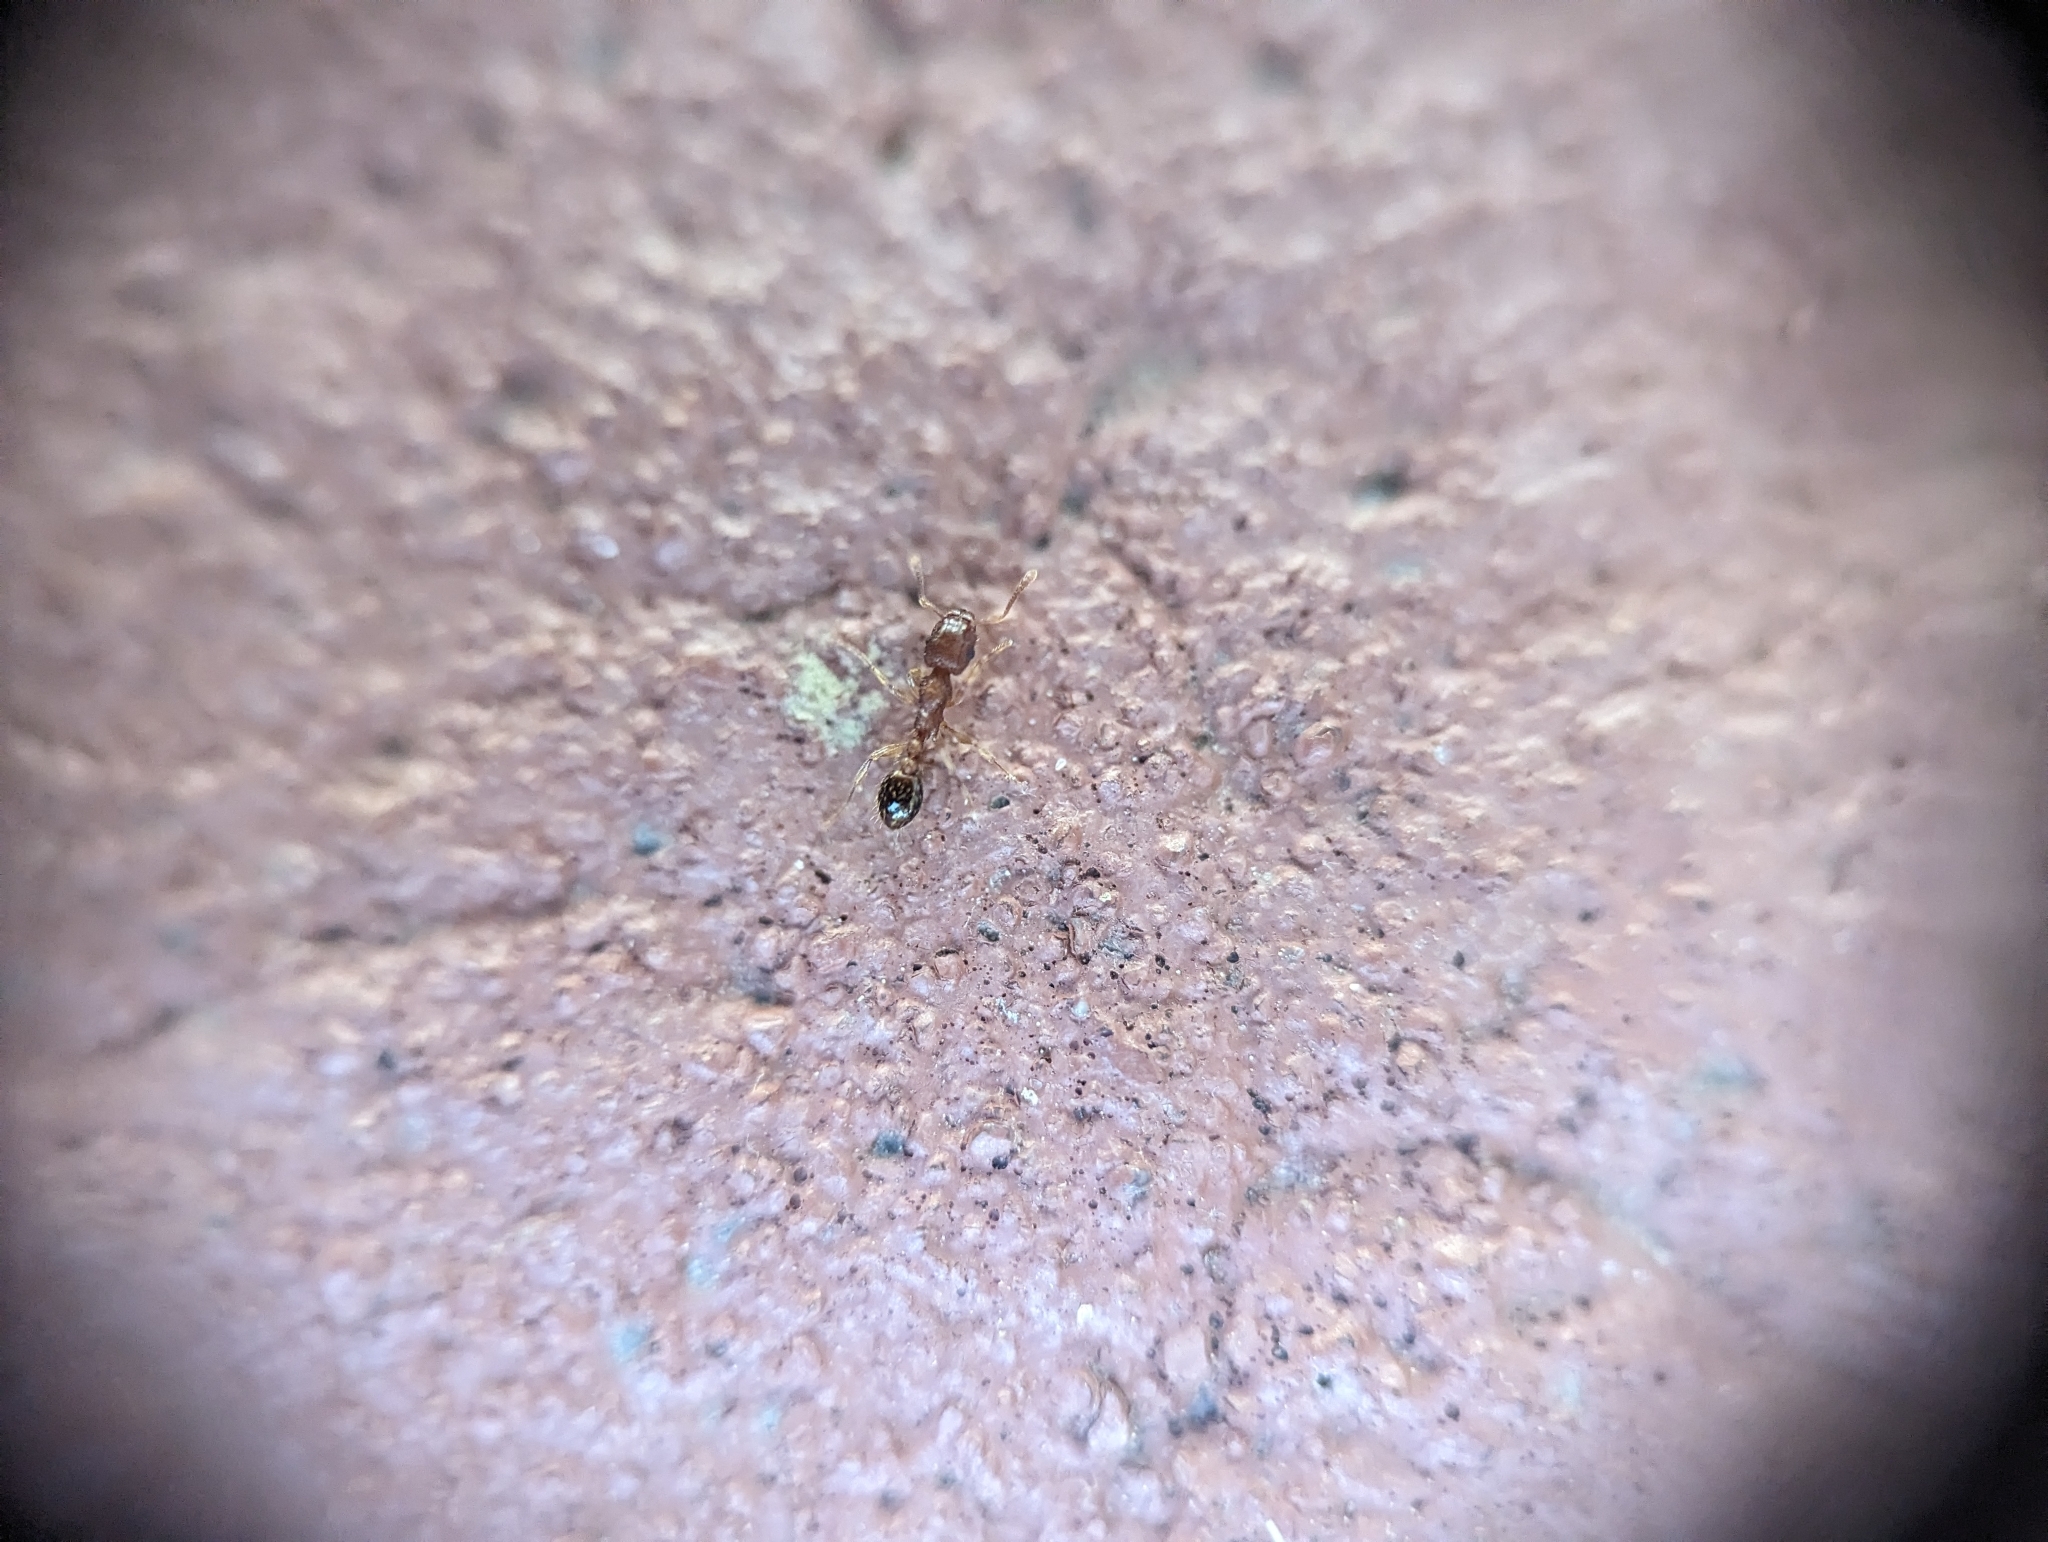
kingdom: Animalia
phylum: Arthropoda
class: Insecta
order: Hymenoptera
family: Formicidae
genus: Tetramorium
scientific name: Tetramorium bicarinatum
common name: Guinea ant
